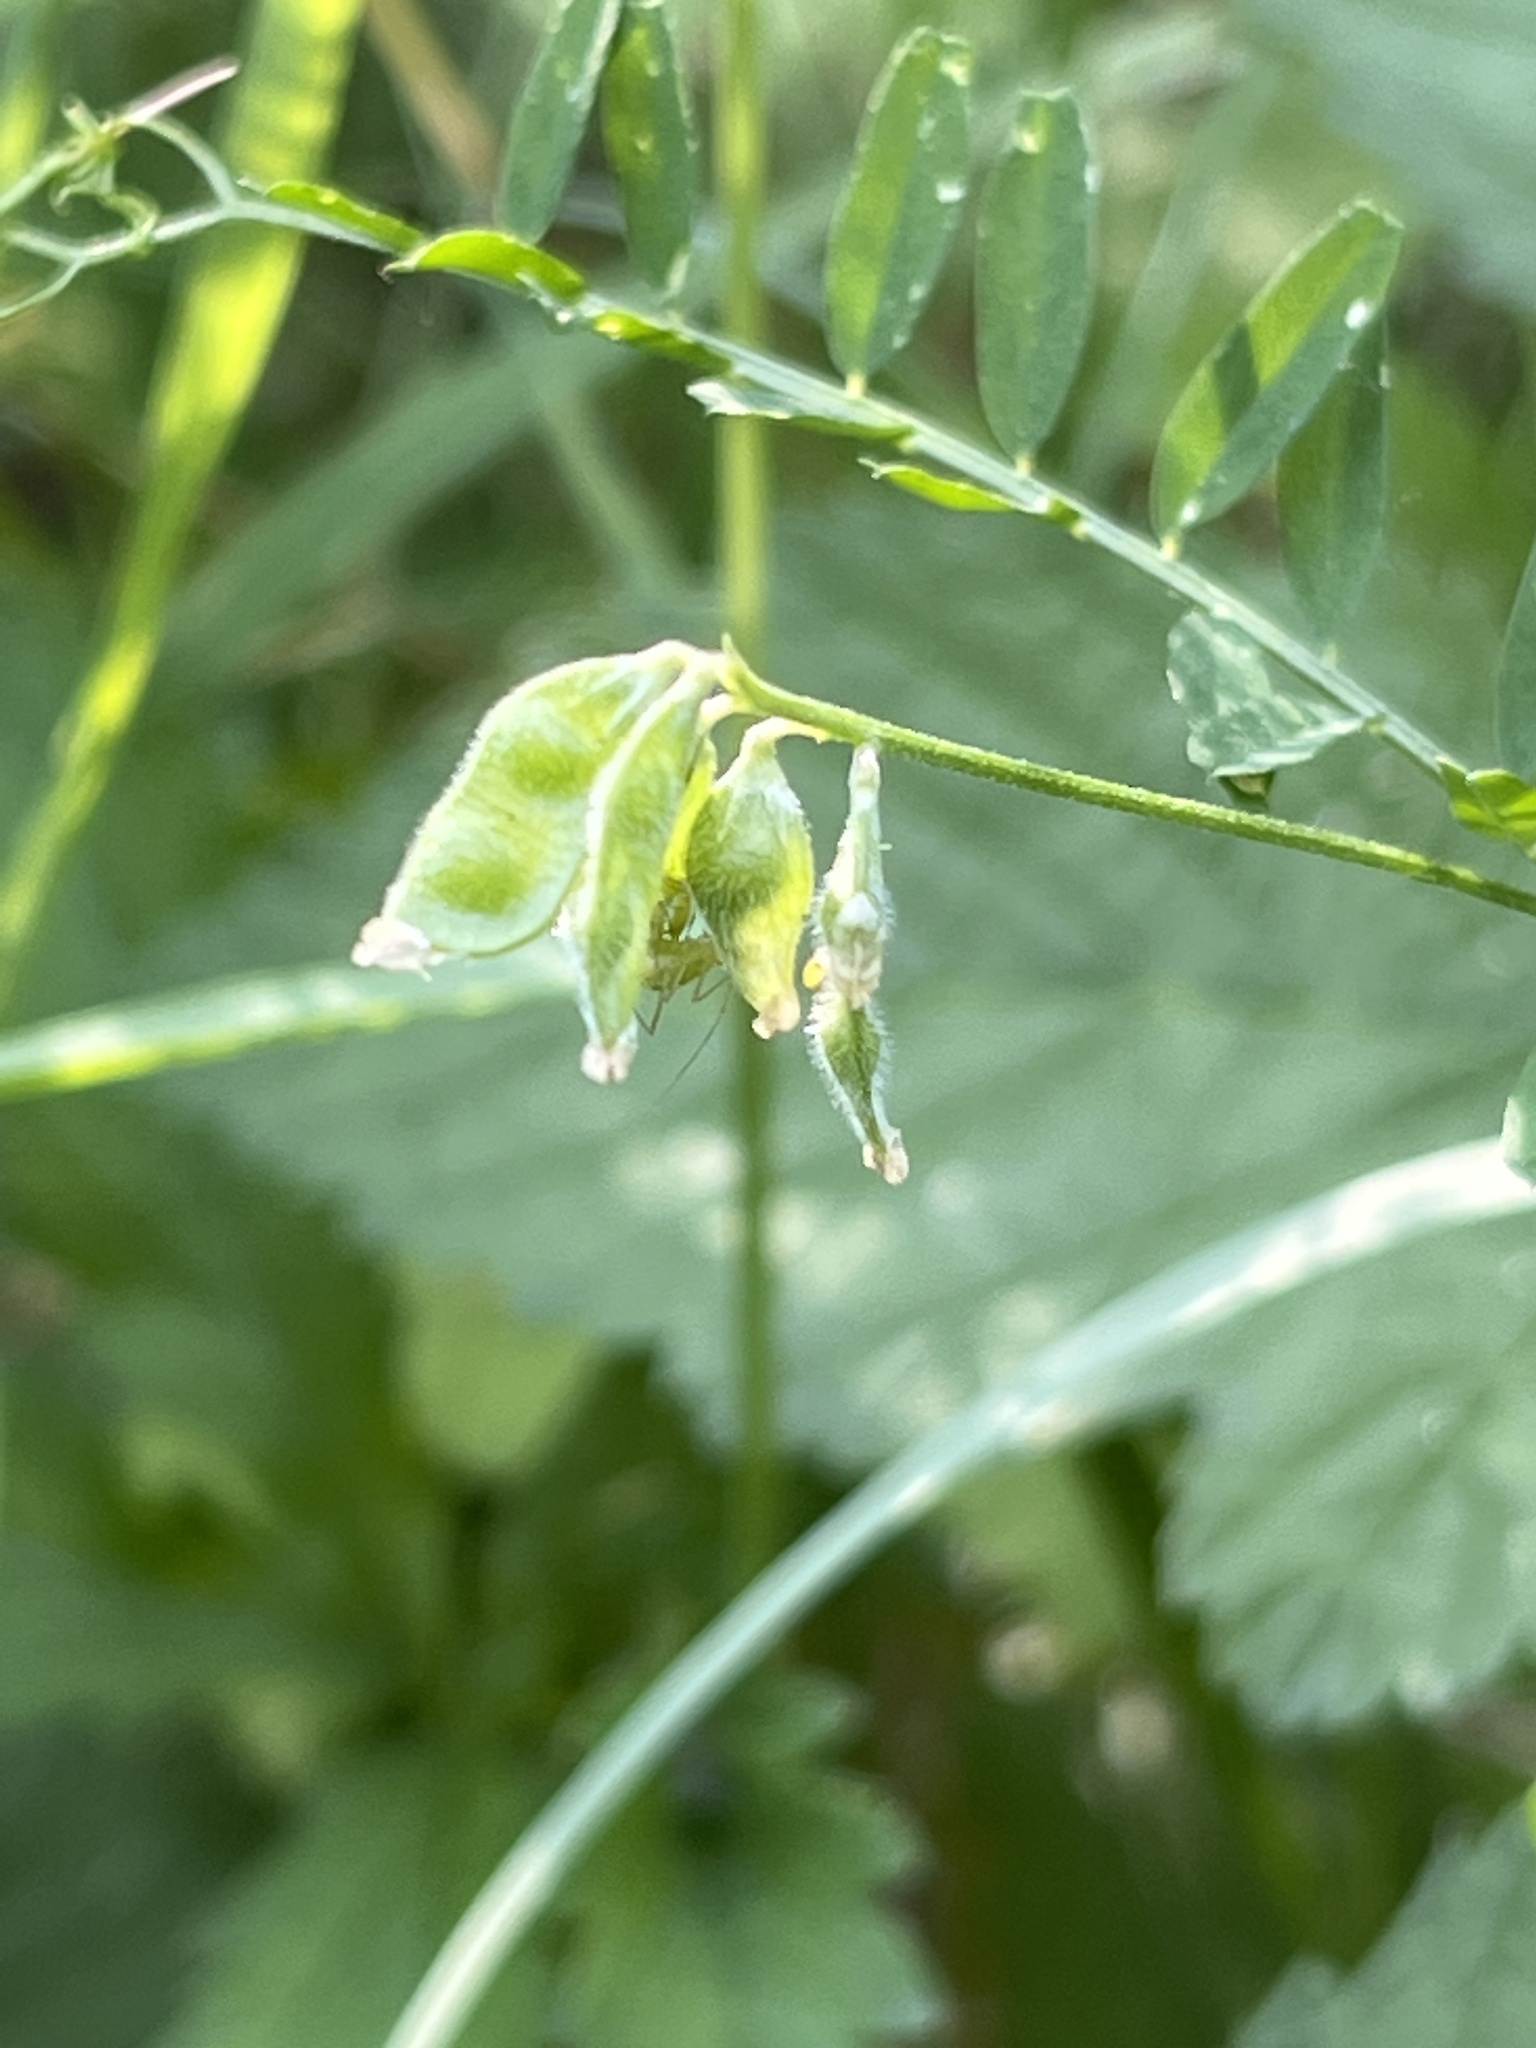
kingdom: Plantae
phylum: Tracheophyta
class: Magnoliopsida
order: Fabales
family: Fabaceae
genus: Vicia
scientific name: Vicia hirsuta
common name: Tiny vetch
